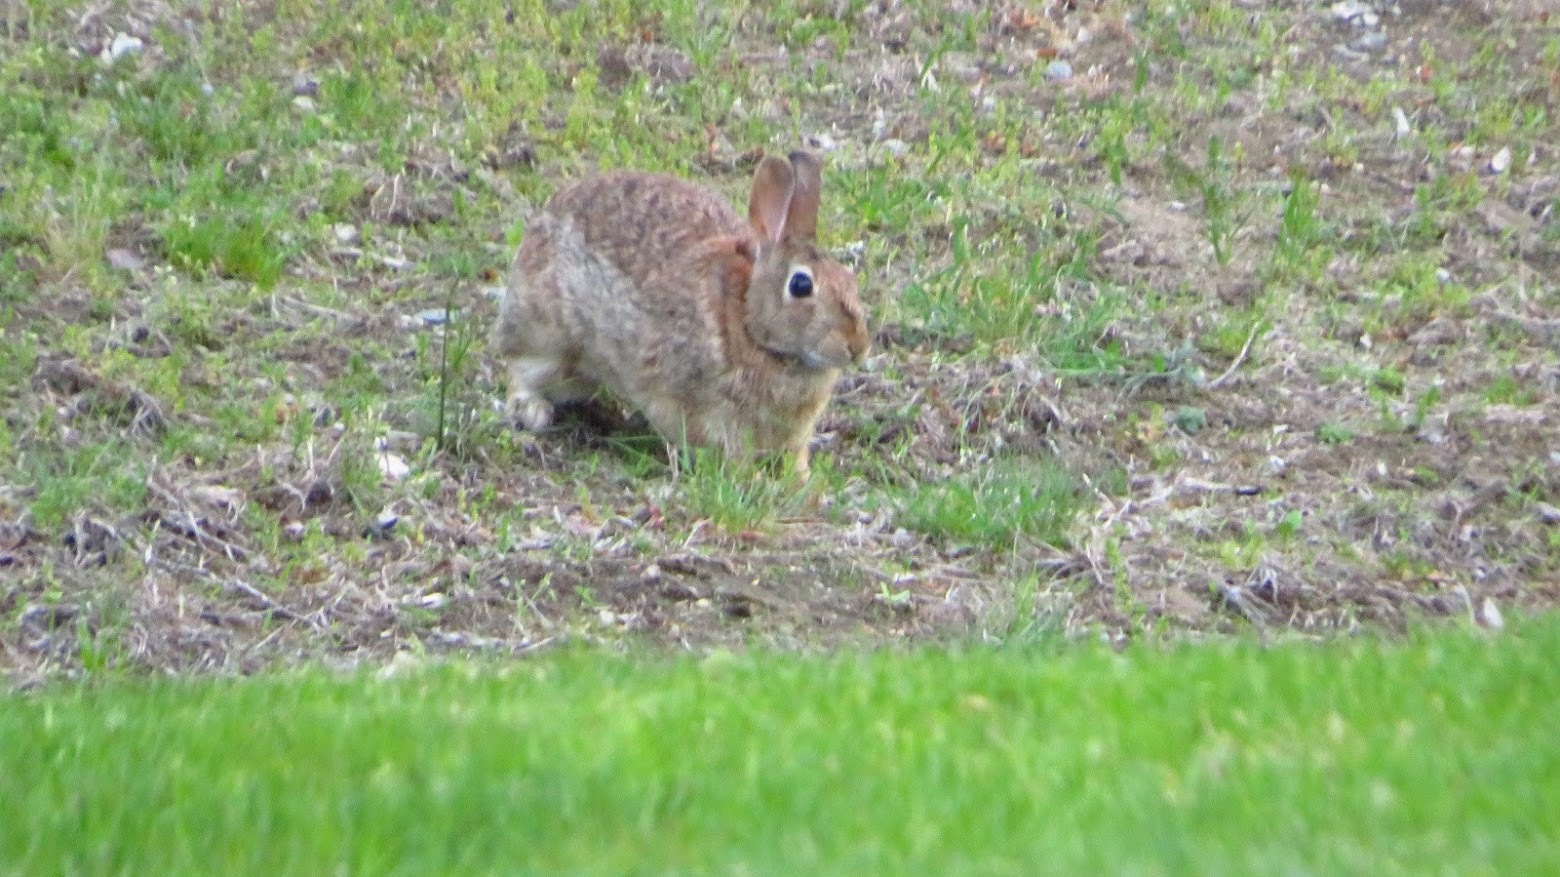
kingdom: Animalia
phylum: Chordata
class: Mammalia
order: Lagomorpha
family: Leporidae
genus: Sylvilagus
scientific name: Sylvilagus floridanus
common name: Eastern cottontail
